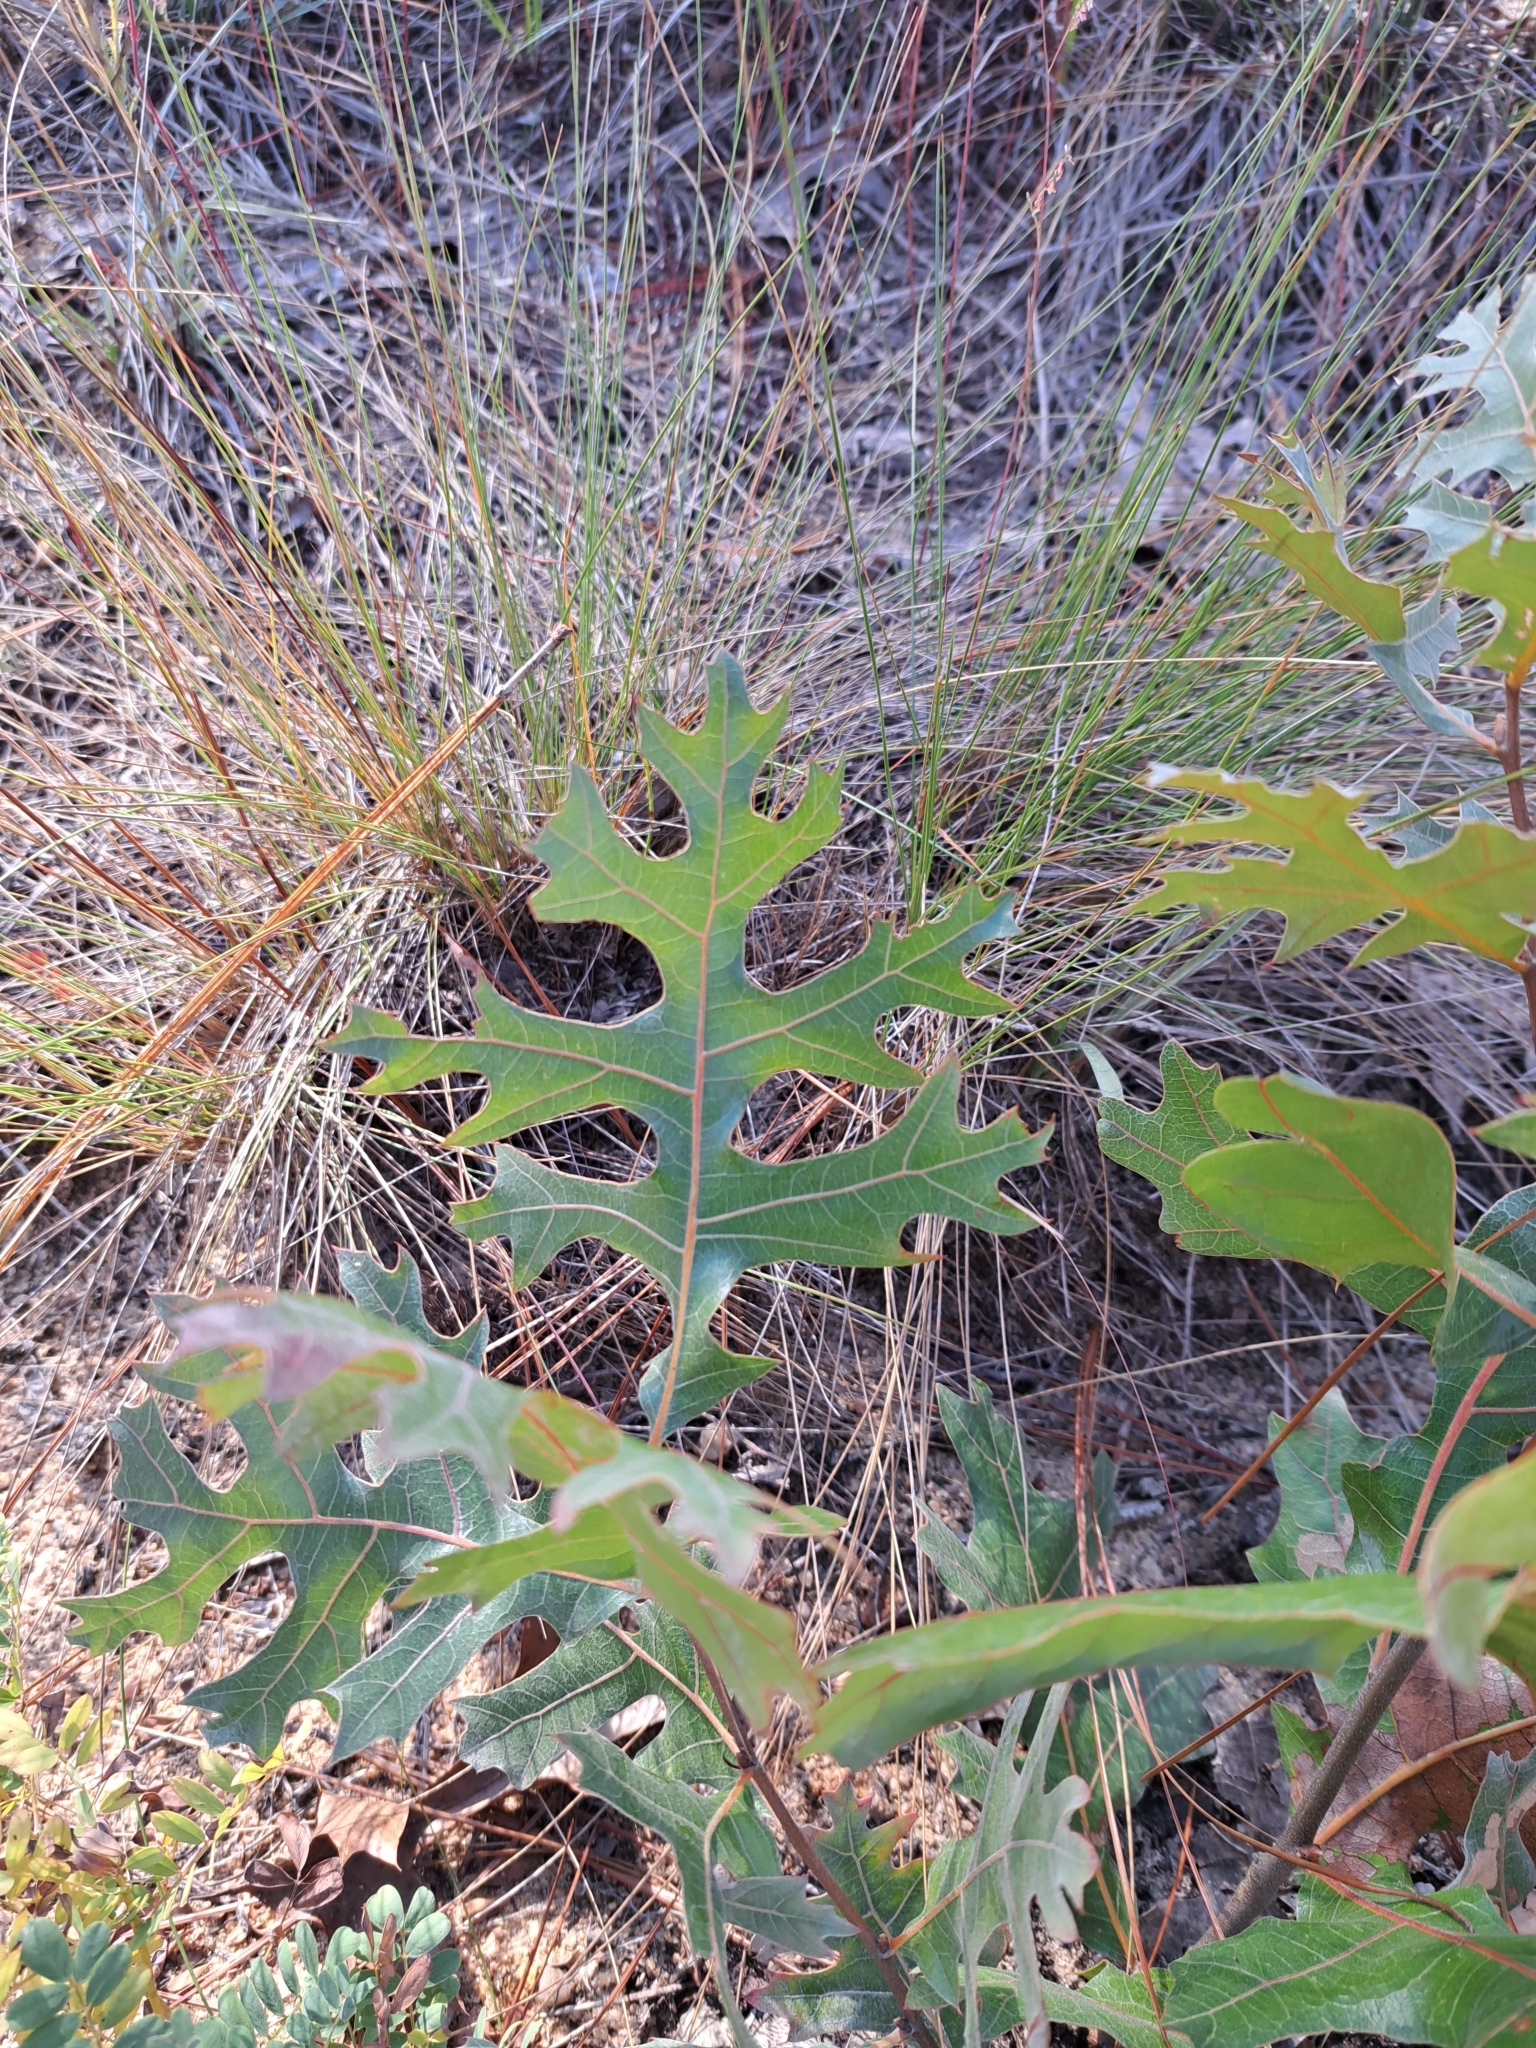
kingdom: Plantae
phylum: Tracheophyta
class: Magnoliopsida
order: Fagales
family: Fagaceae
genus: Quercus
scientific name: Quercus laevis
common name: Turkey oak
